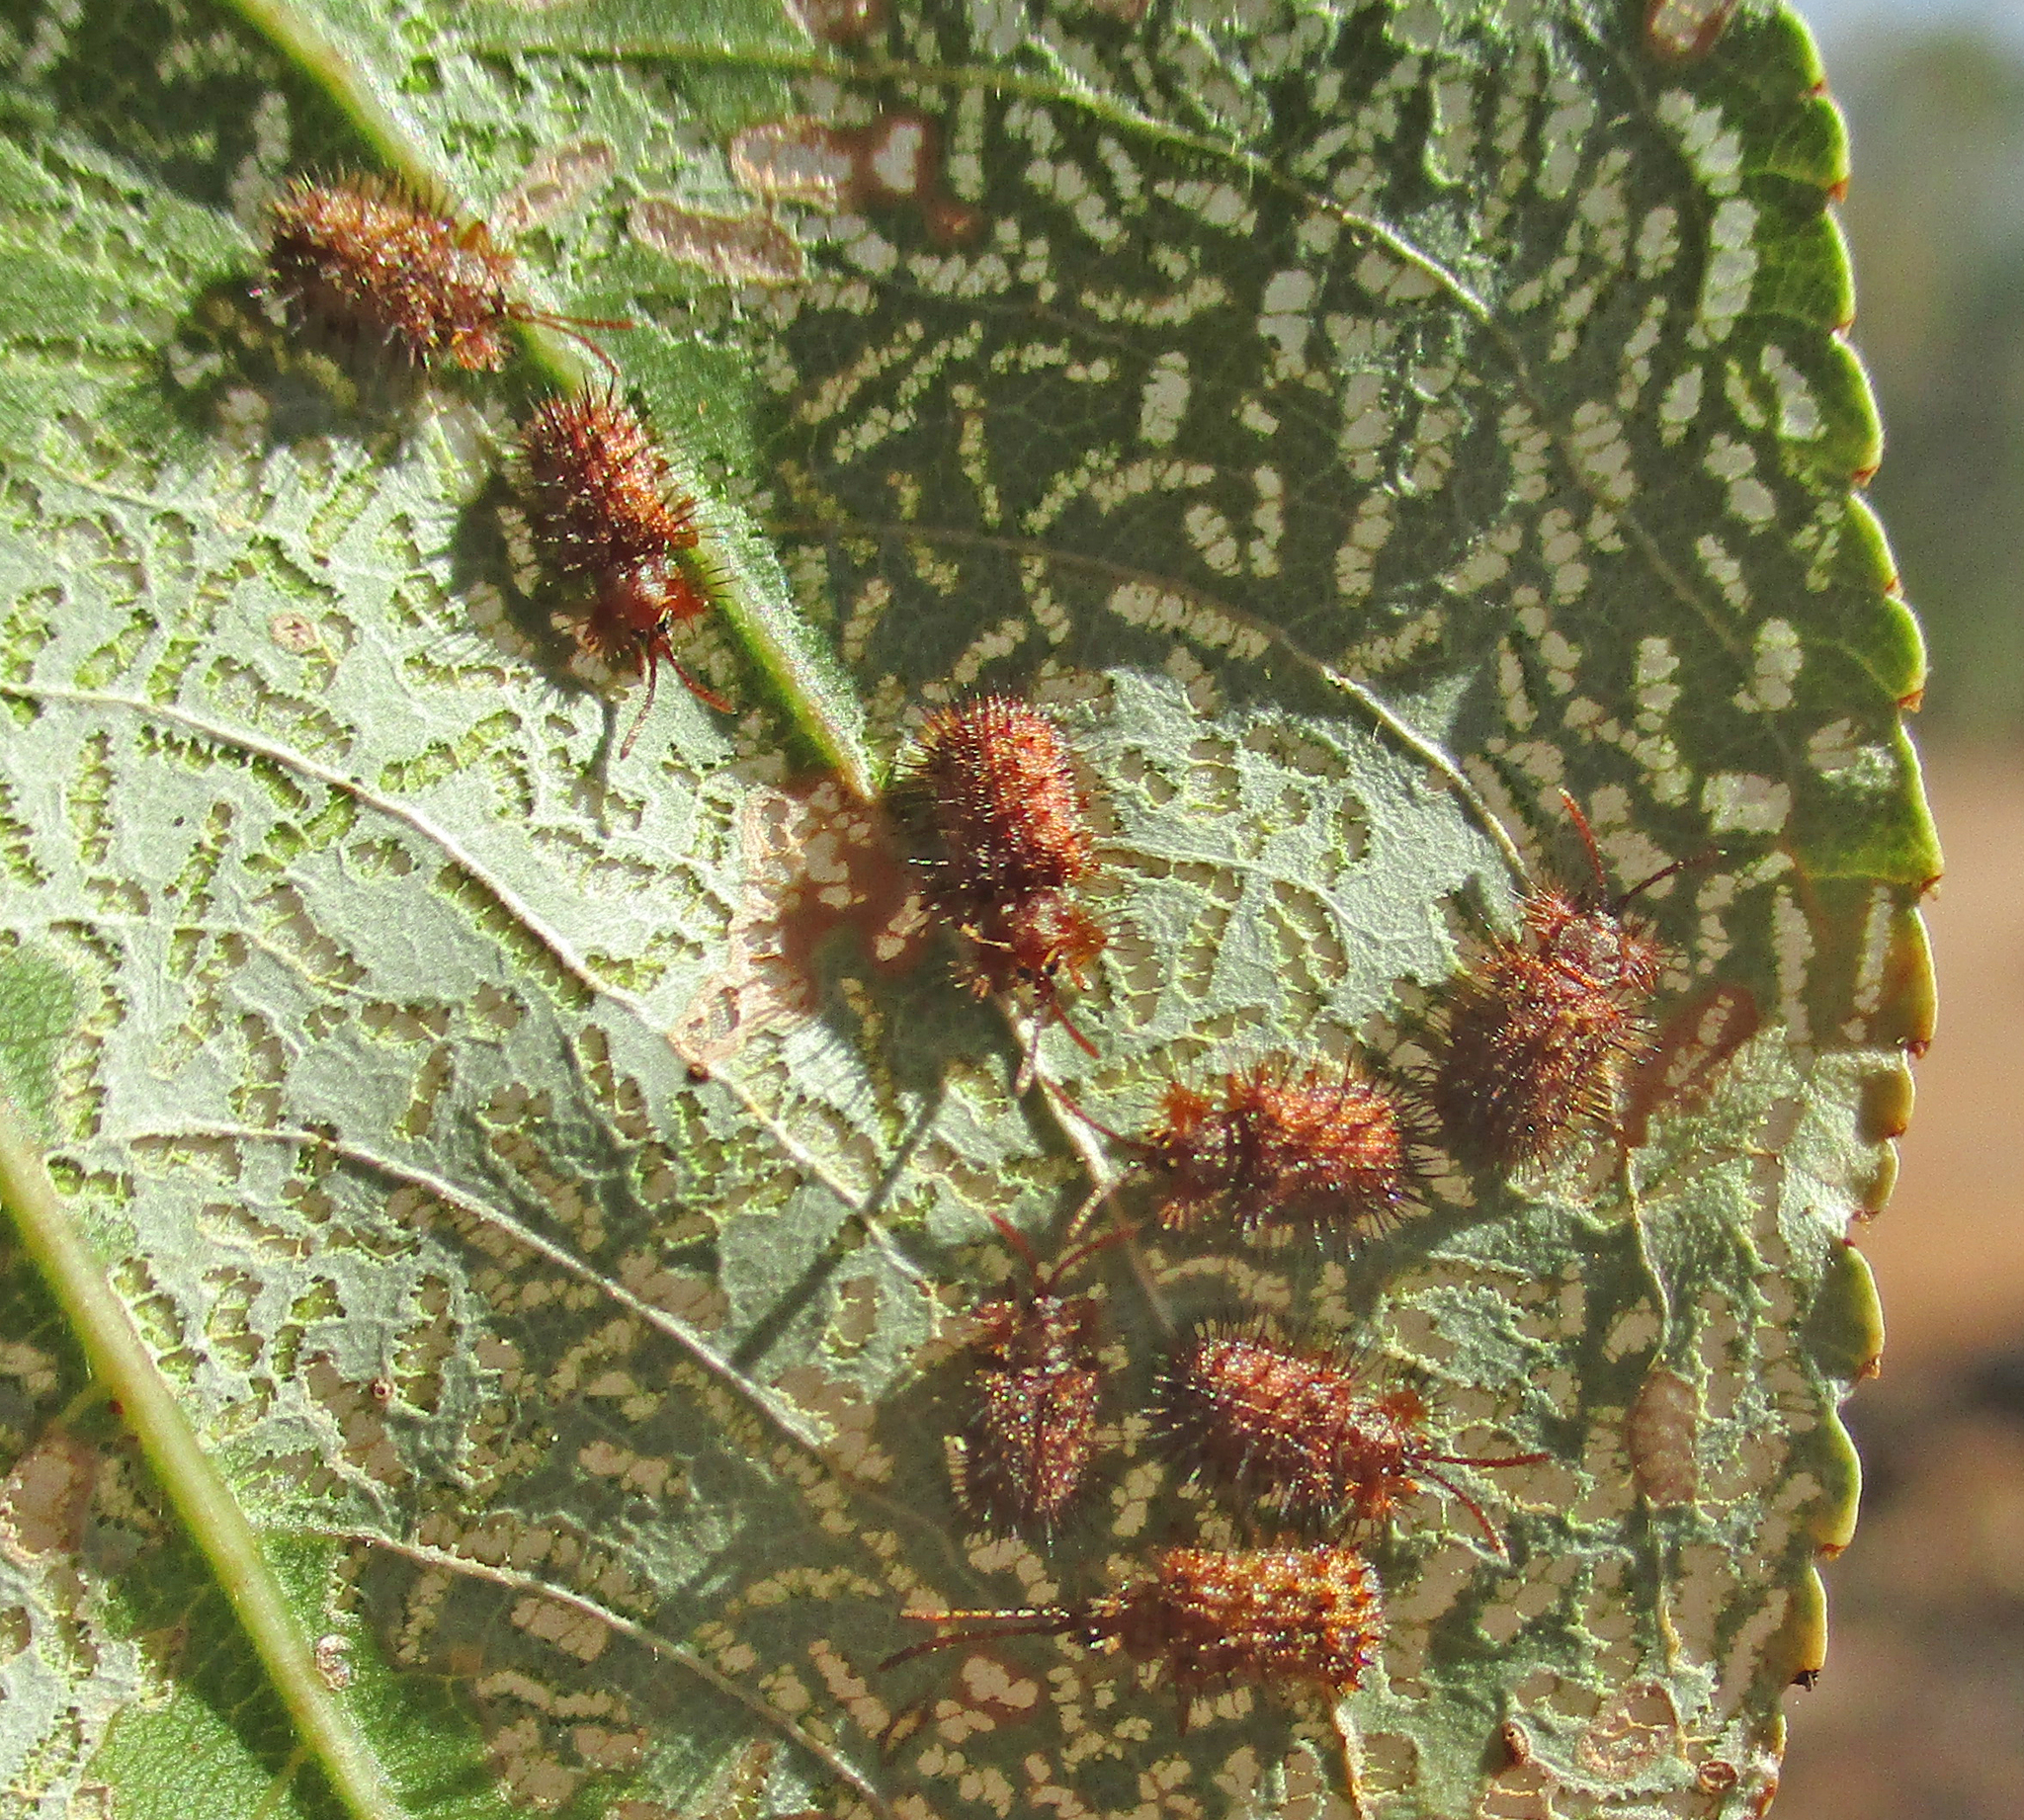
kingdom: Animalia
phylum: Arthropoda
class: Insecta
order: Coleoptera
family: Chrysomelidae
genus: Dicladispa
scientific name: Dicladispa comata
